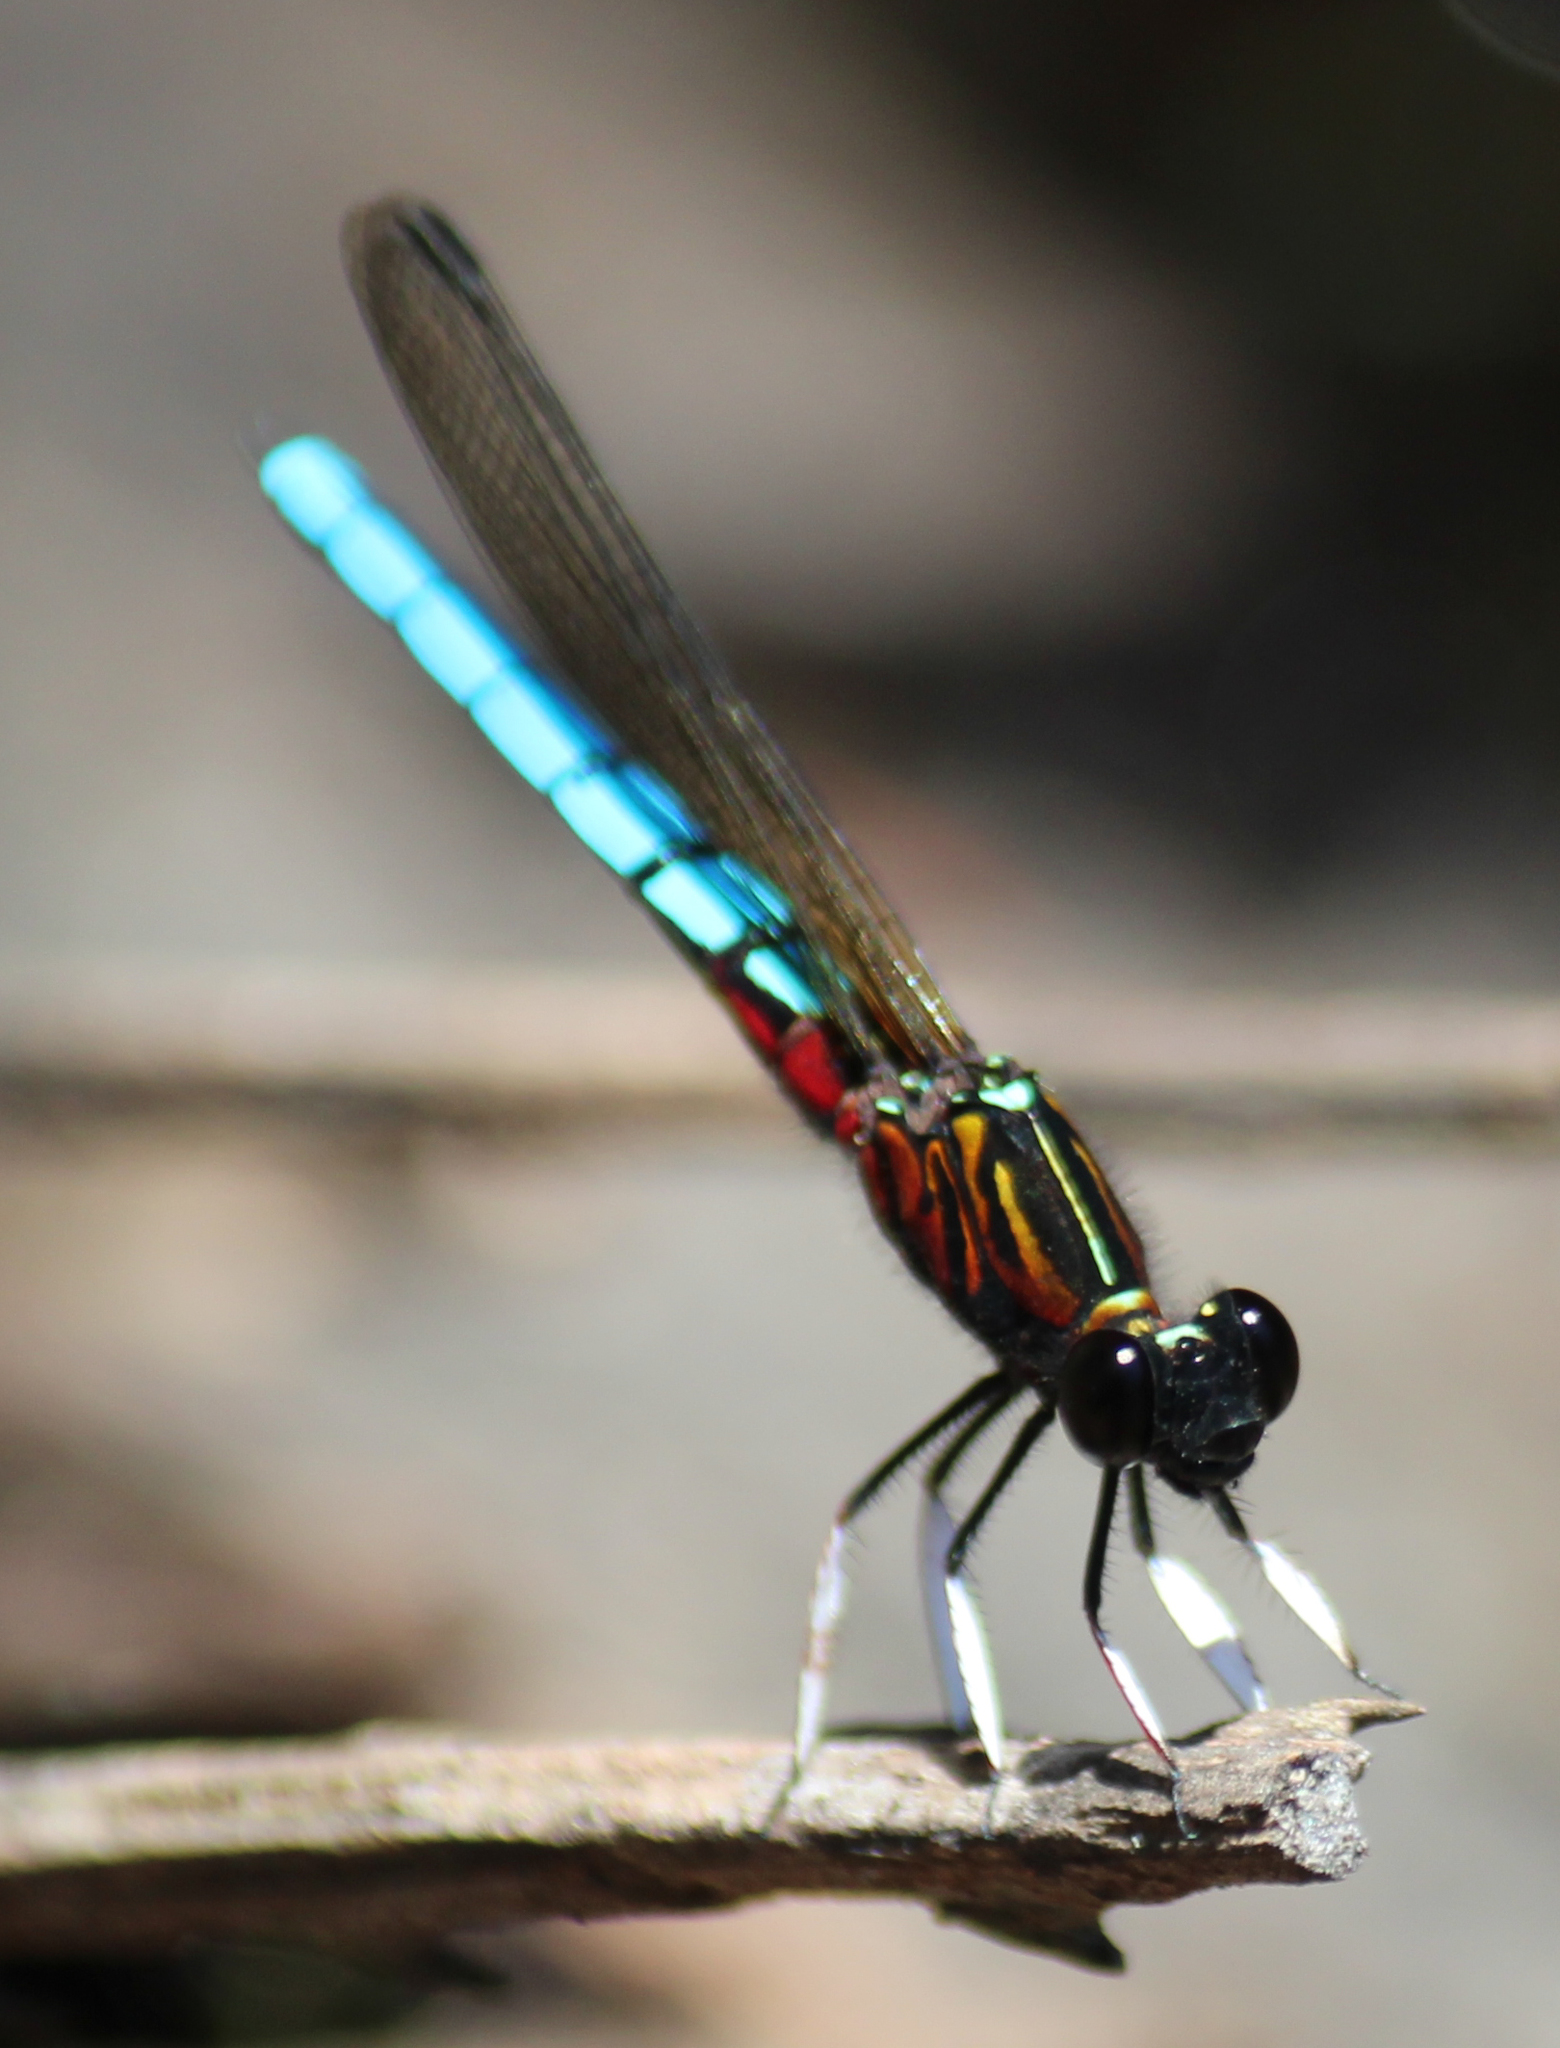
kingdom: Animalia
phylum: Arthropoda
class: Insecta
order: Odonata
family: Chlorocyphidae
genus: Platycypha
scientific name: Platycypha caligata
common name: Dancing jewel
